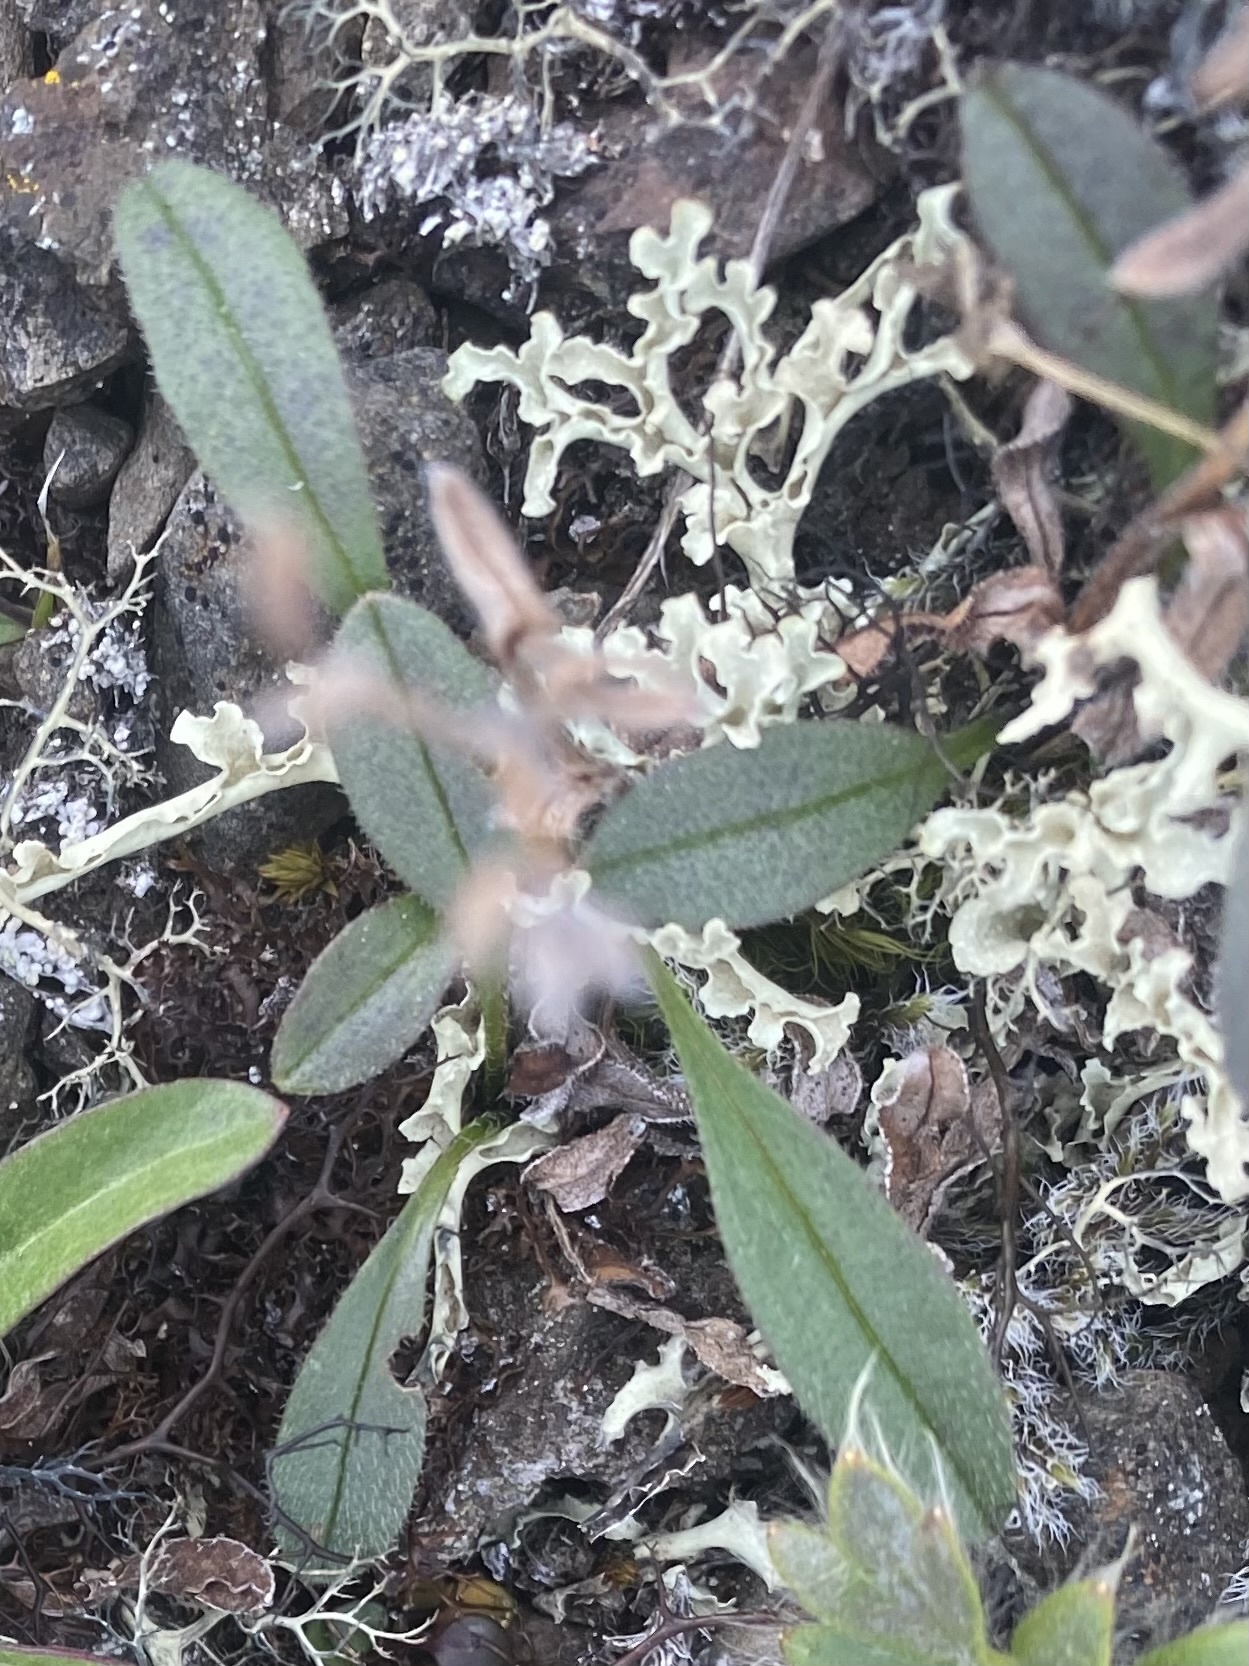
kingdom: Plantae
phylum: Tracheophyta
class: Magnoliopsida
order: Boraginales
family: Boraginaceae
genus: Myosotis
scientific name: Myosotis asiatica
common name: Asian forget-me-not
